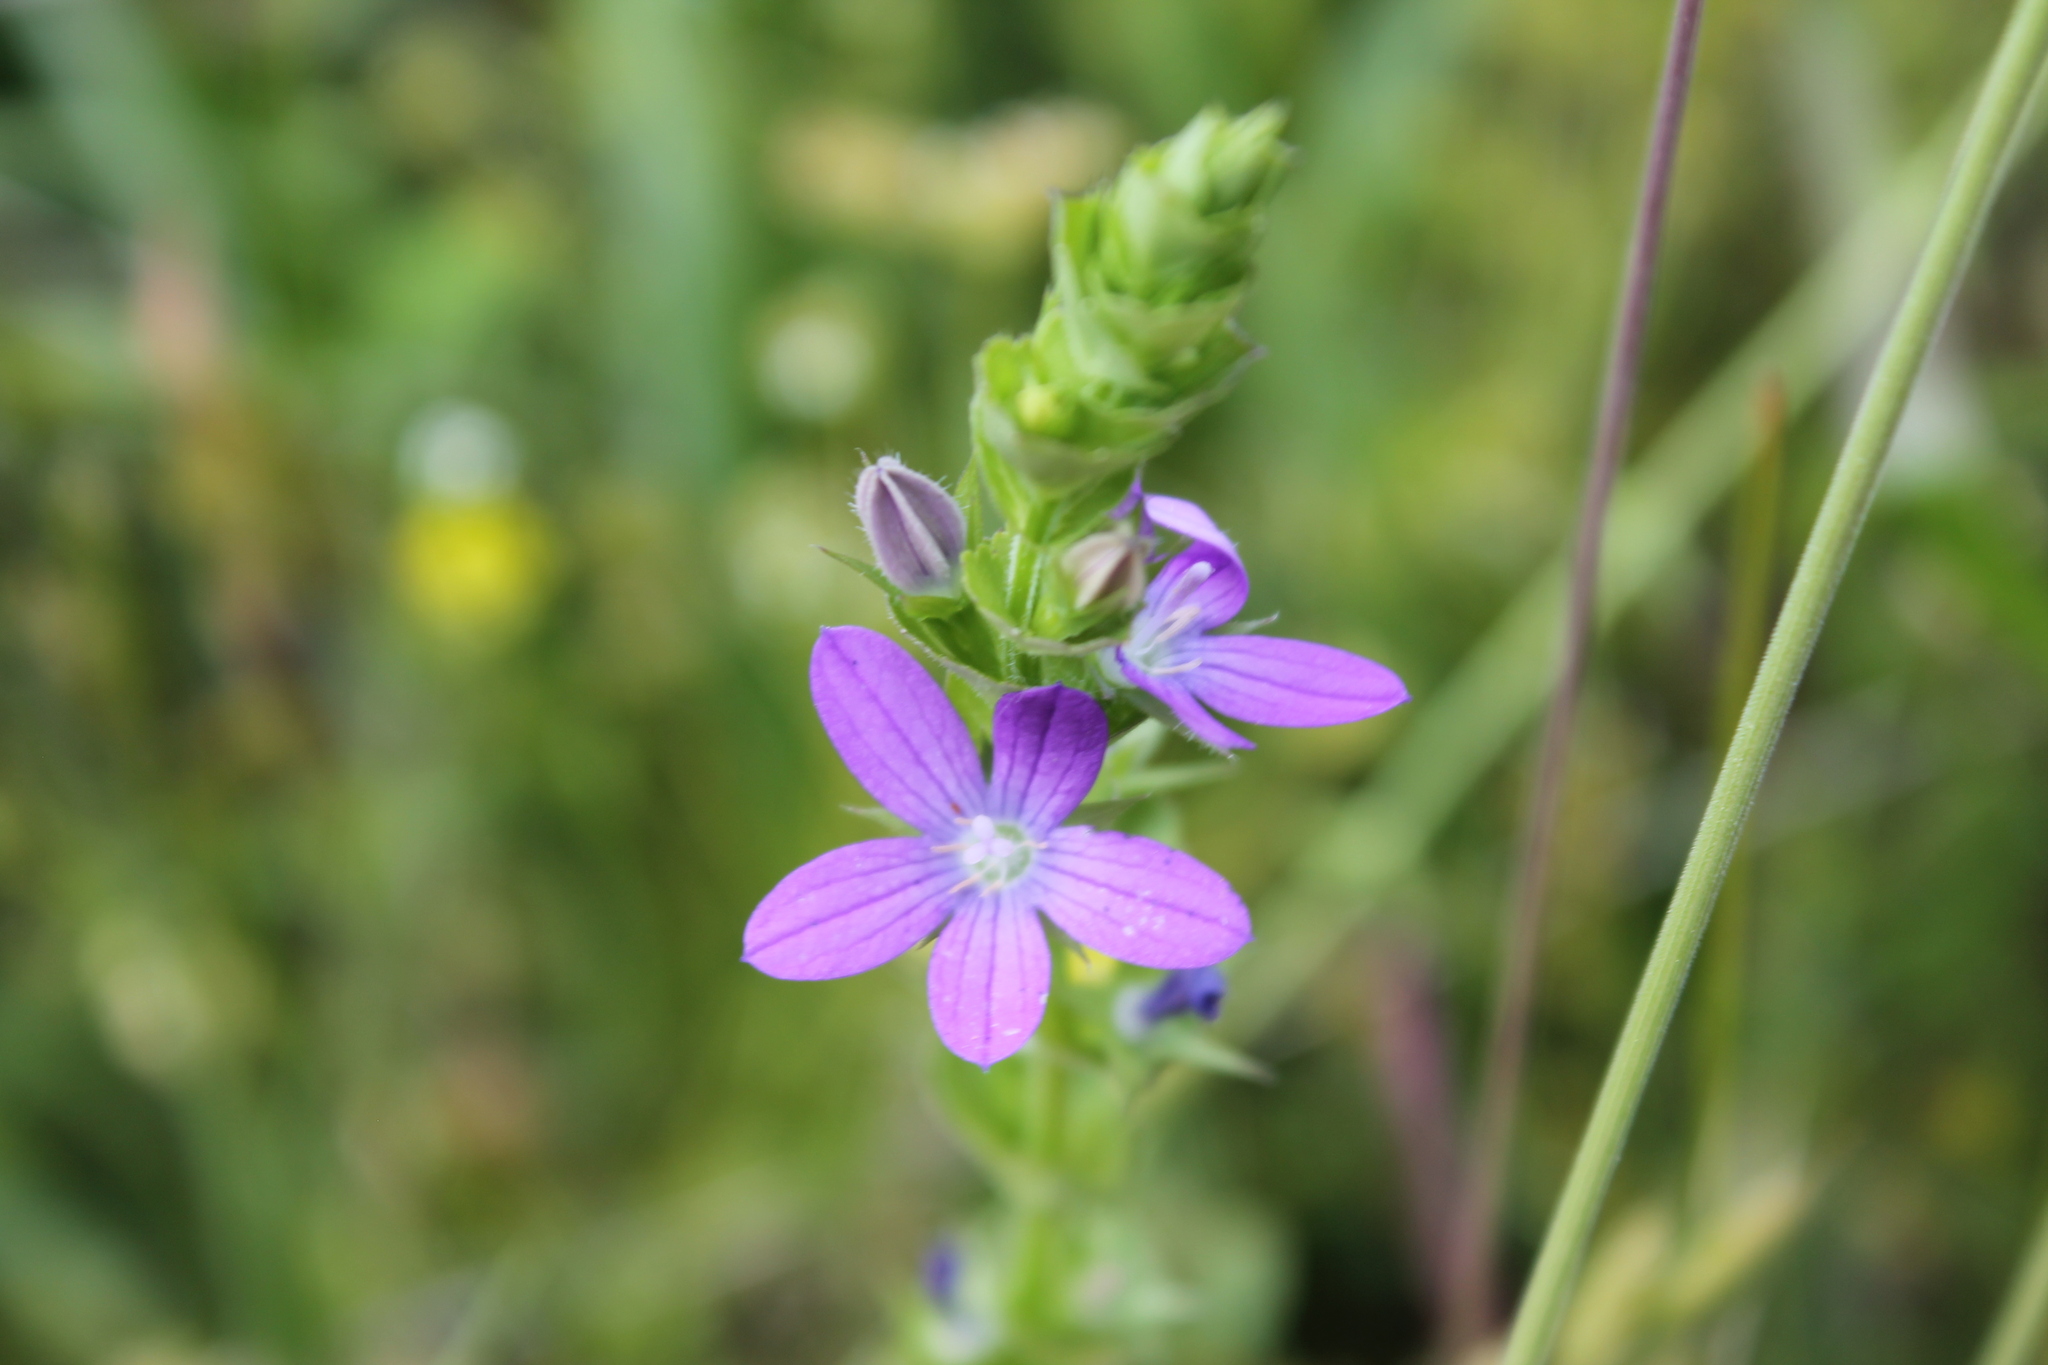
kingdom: Plantae
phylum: Tracheophyta
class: Magnoliopsida
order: Asterales
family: Campanulaceae
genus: Triodanis
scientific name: Triodanis perfoliata
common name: Clasping venus' looking-glass
